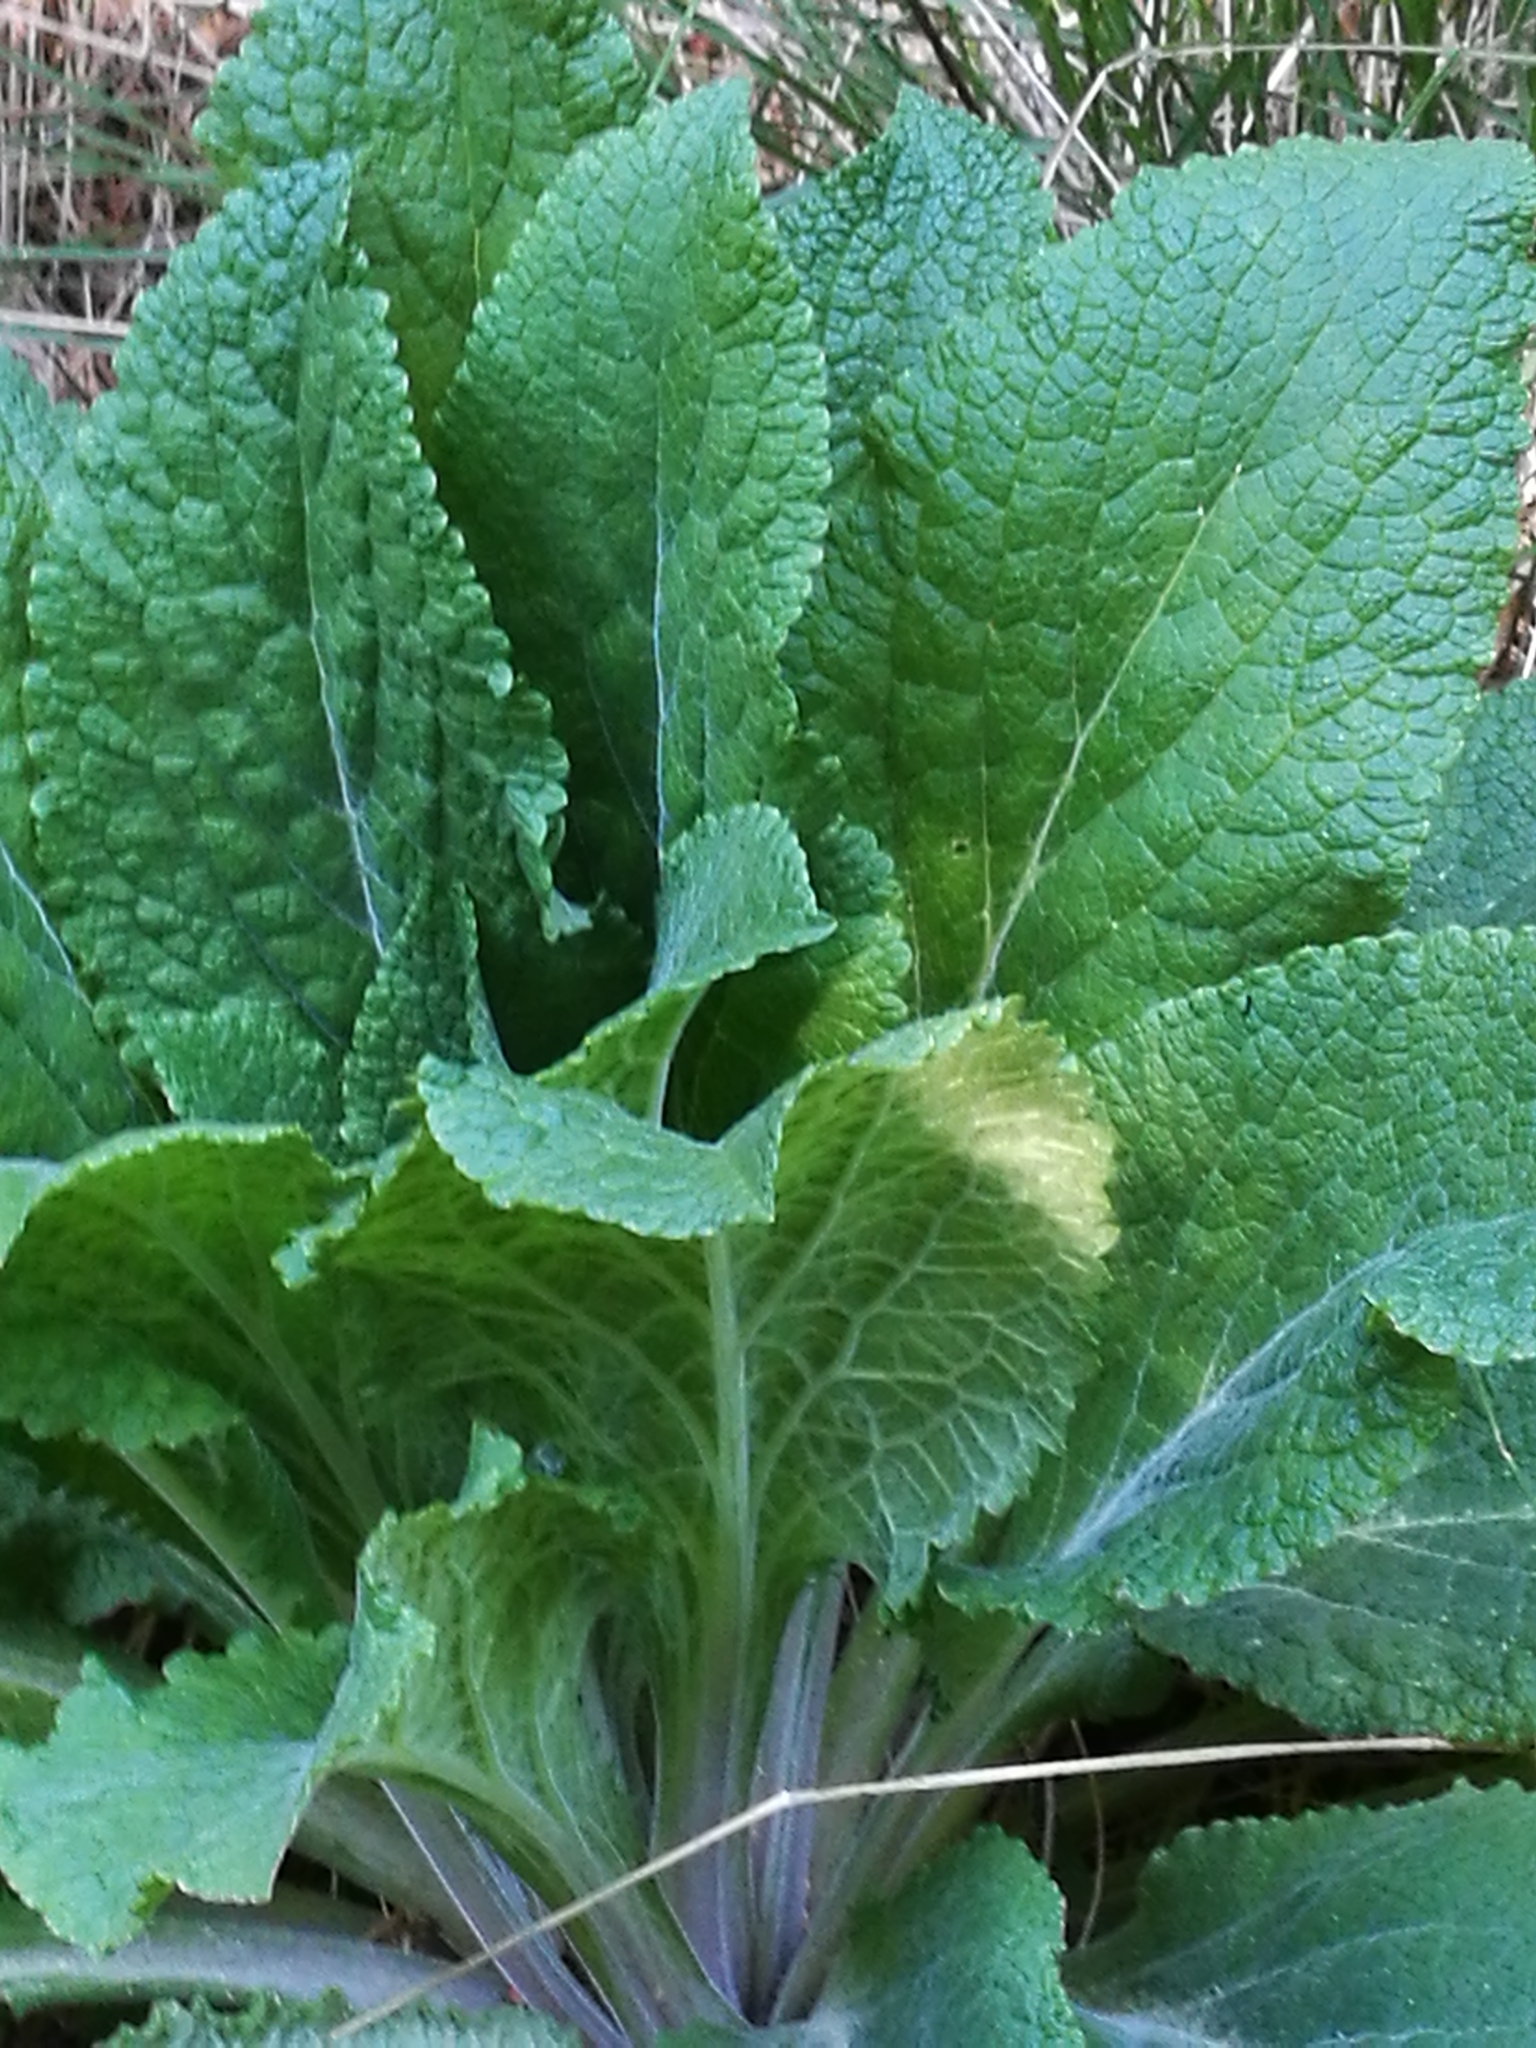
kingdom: Plantae
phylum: Tracheophyta
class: Magnoliopsida
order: Lamiales
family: Plantaginaceae
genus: Digitalis
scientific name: Digitalis purpurea
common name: Foxglove
